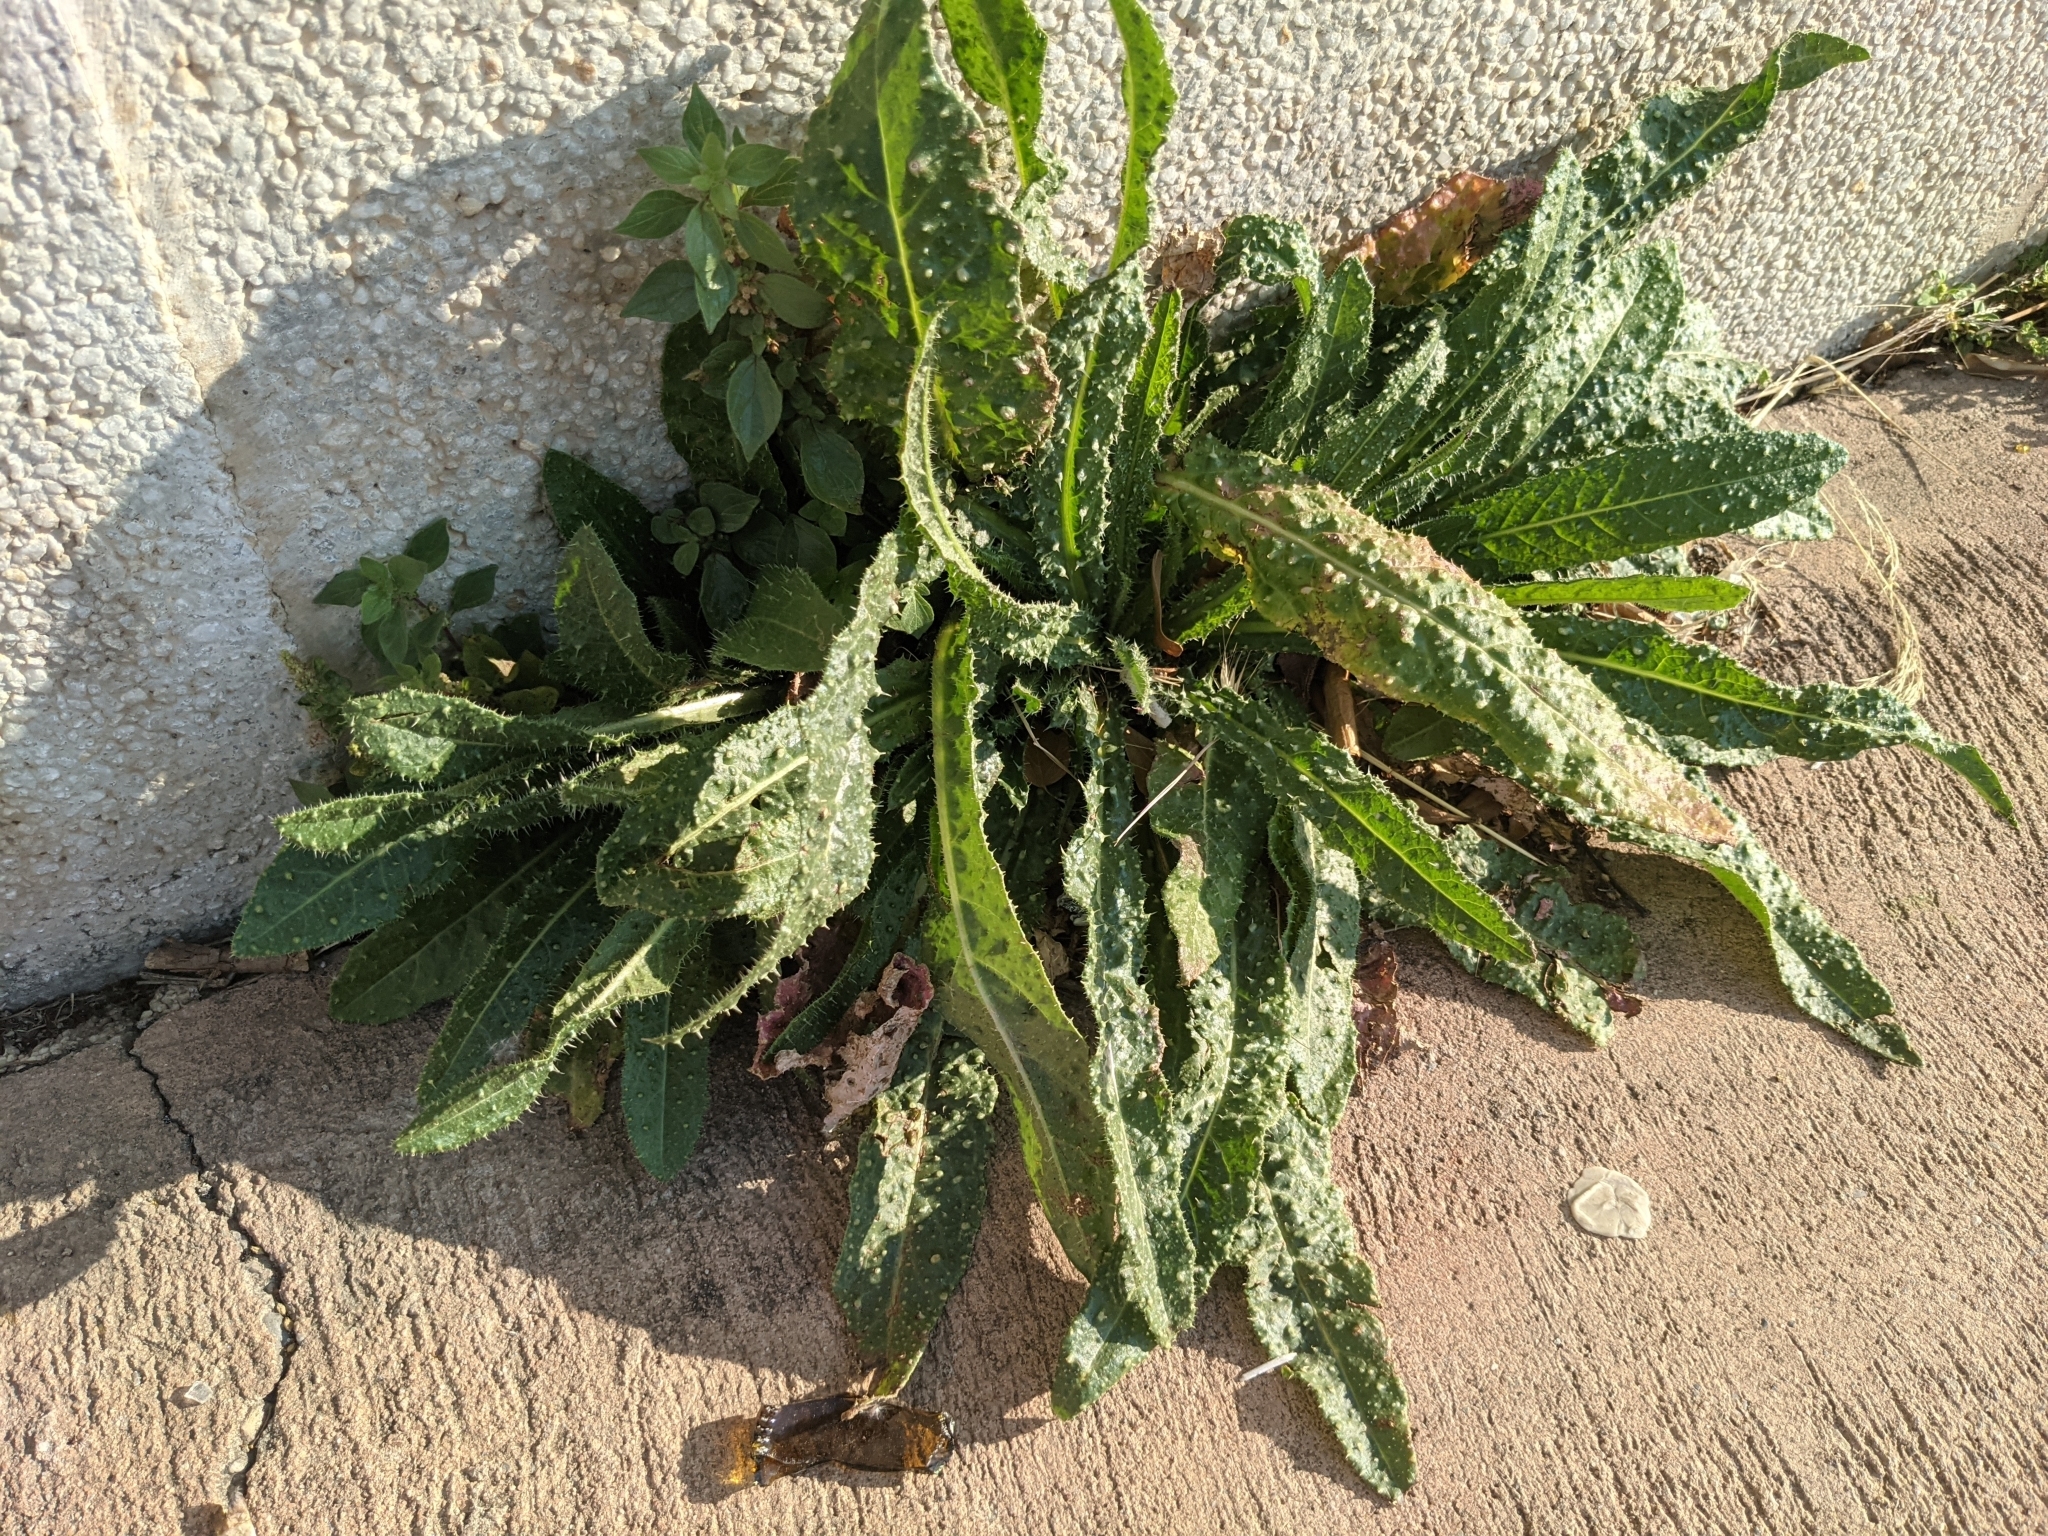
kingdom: Plantae
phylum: Tracheophyta
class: Magnoliopsida
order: Asterales
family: Asteraceae
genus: Helminthotheca
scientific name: Helminthotheca echioides
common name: Ox-tongue
